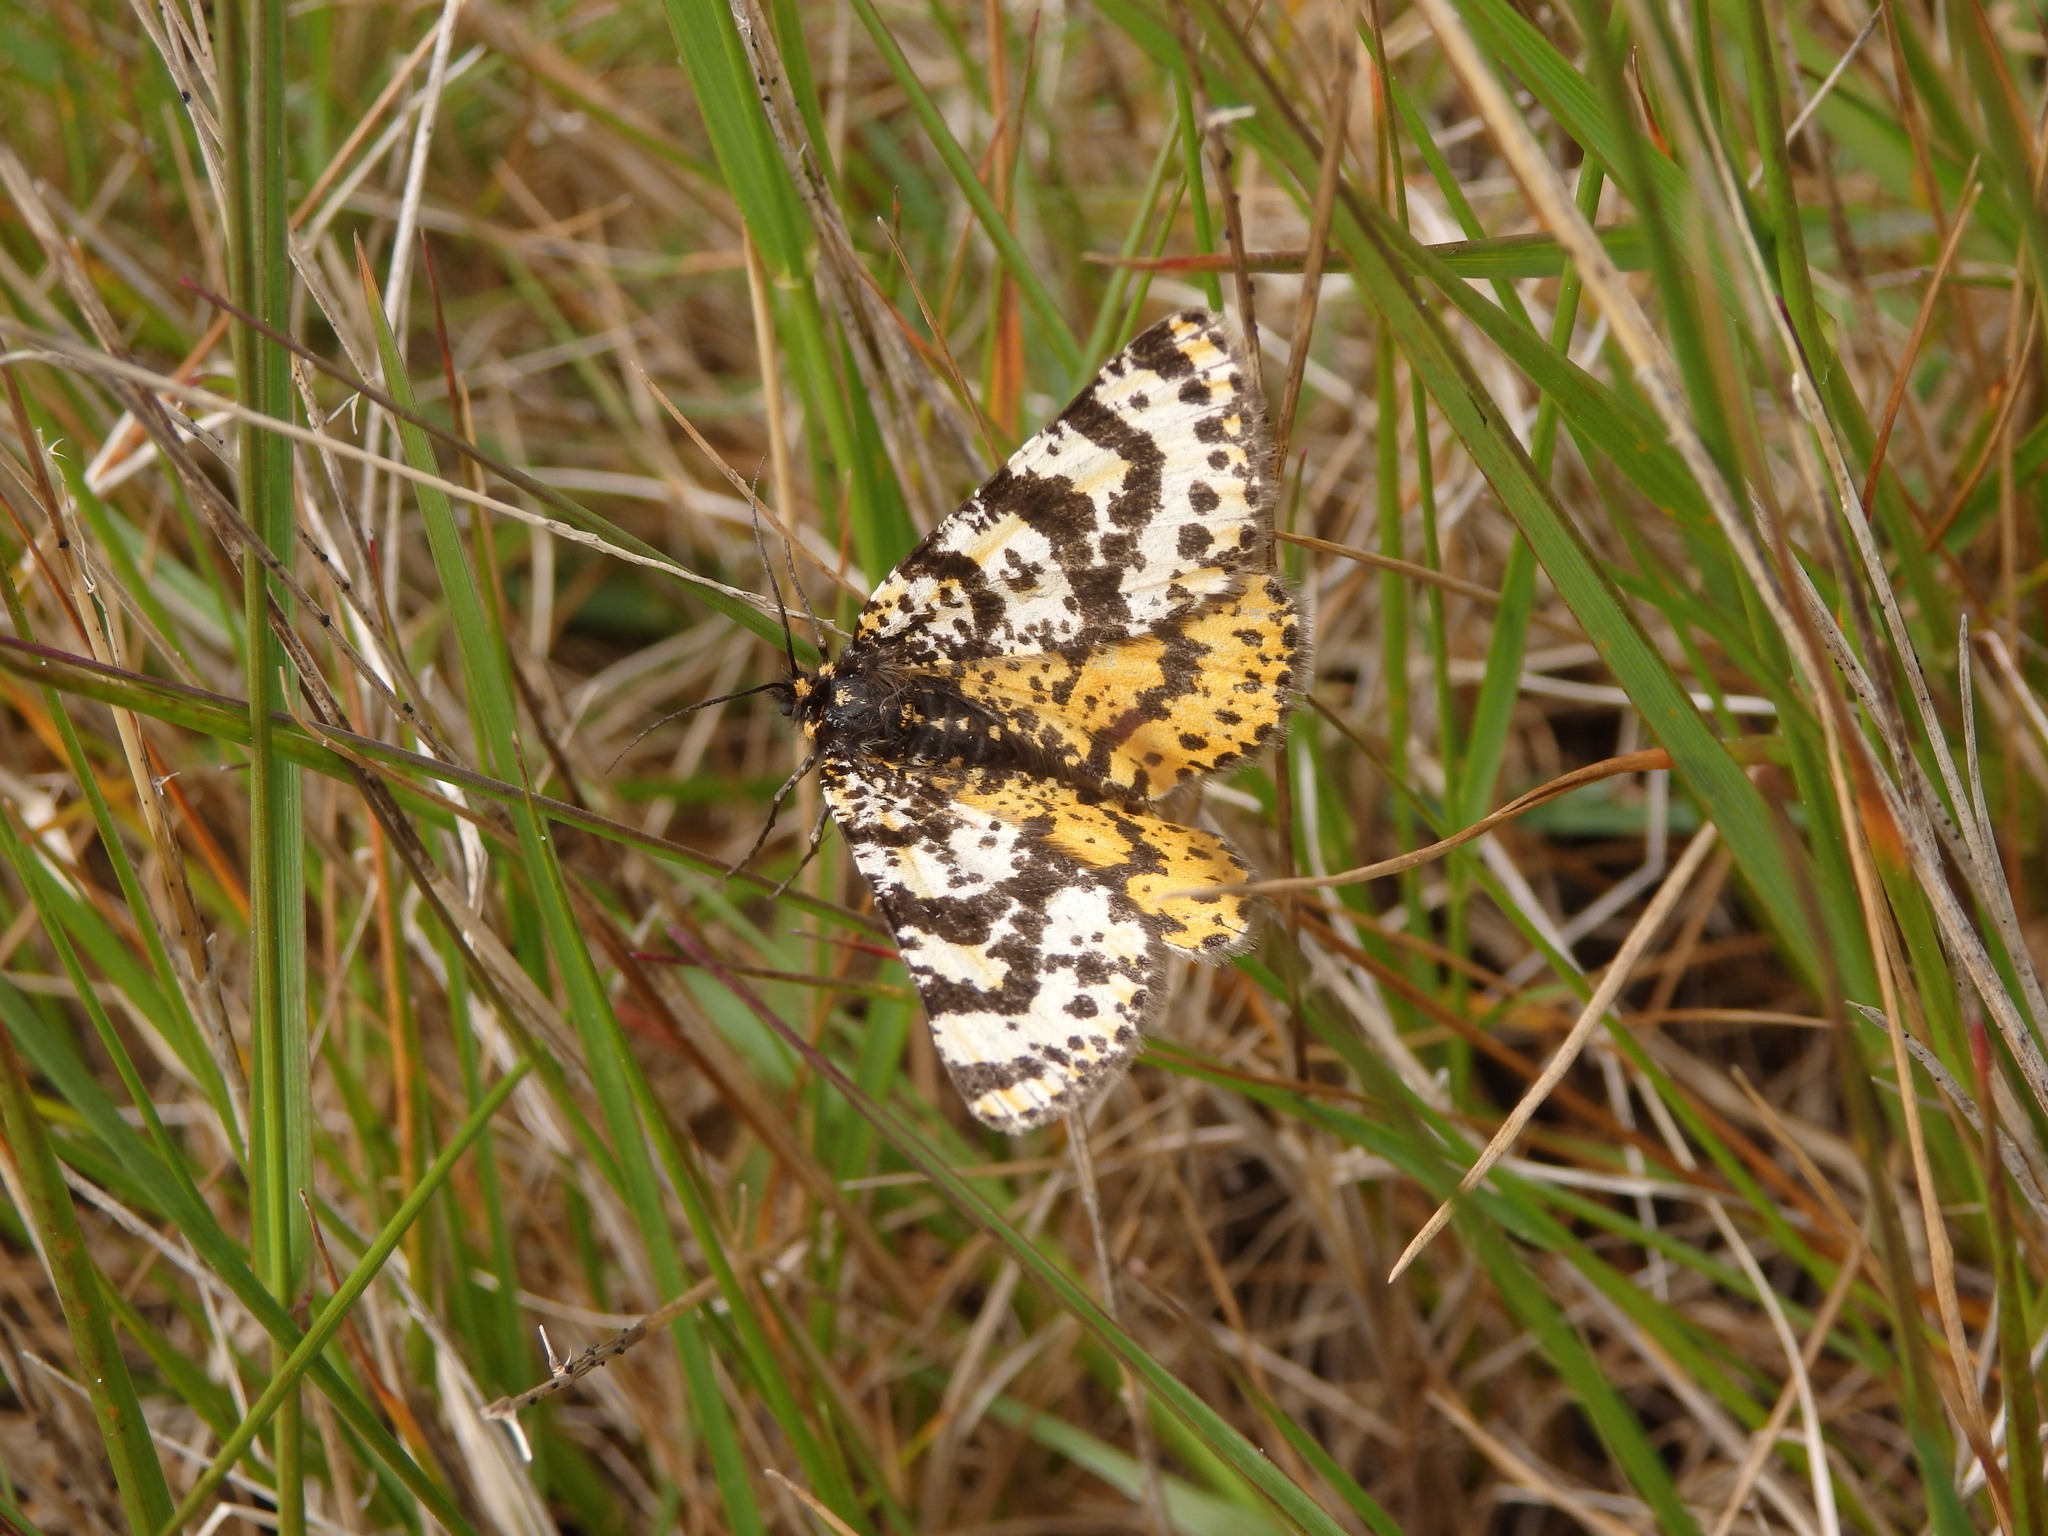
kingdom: Animalia
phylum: Arthropoda
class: Insecta
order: Lepidoptera
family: Geometridae
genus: Eurranthis
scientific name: Eurranthis plummistaria
